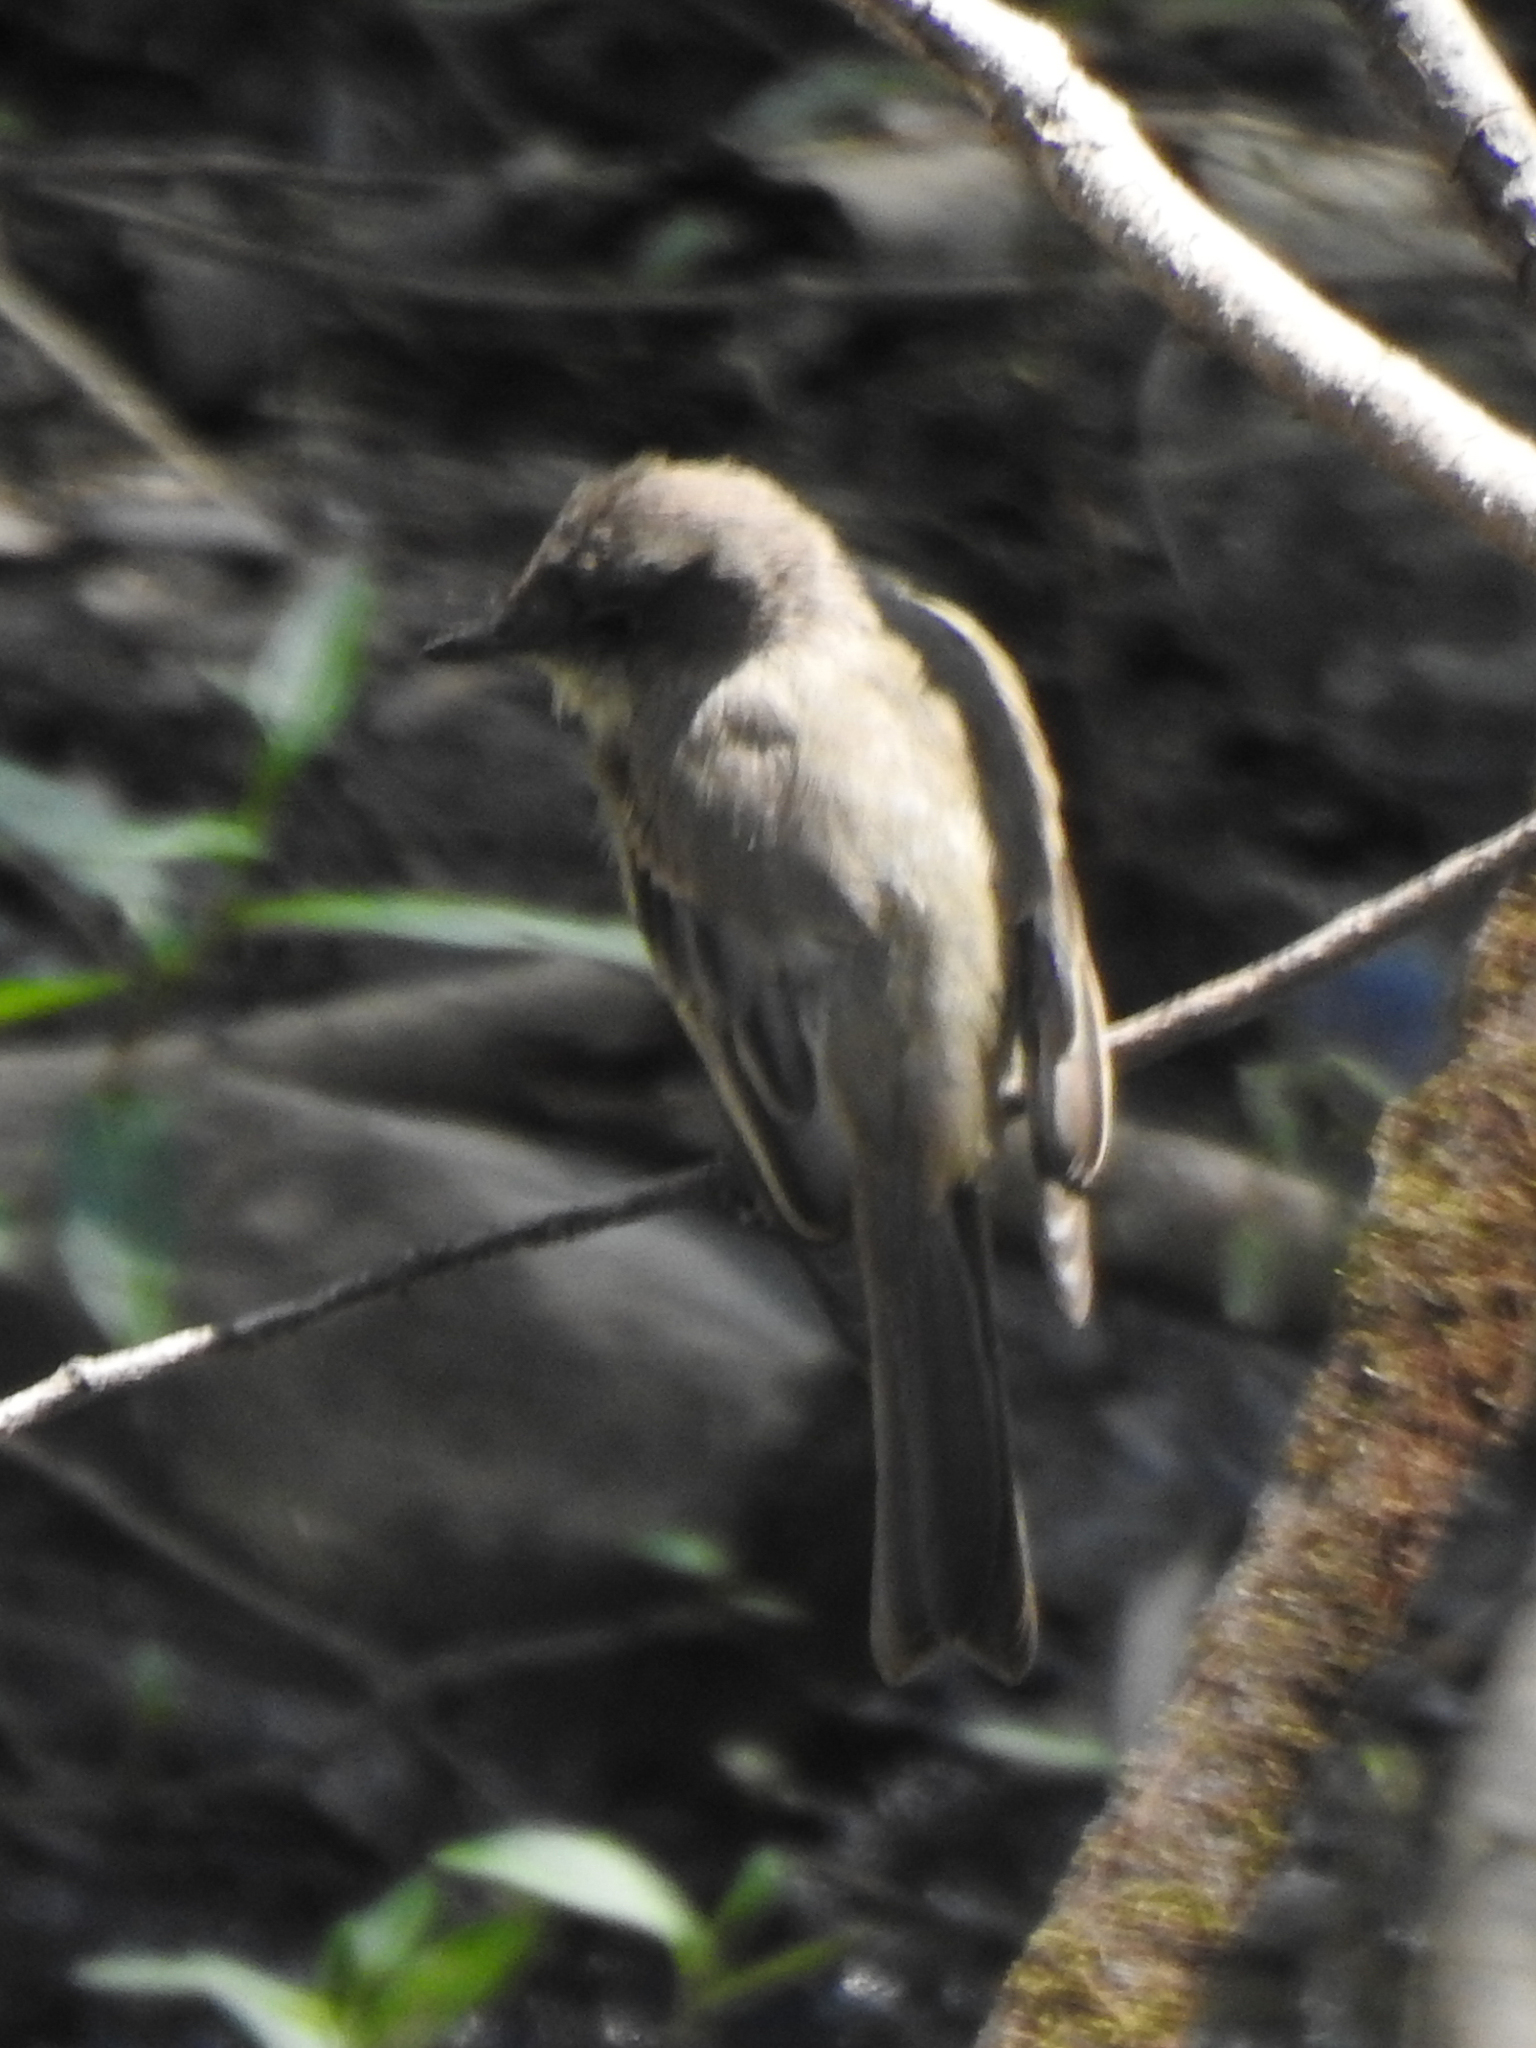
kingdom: Animalia
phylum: Chordata
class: Aves
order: Passeriformes
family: Tyrannidae
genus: Sayornis
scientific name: Sayornis phoebe
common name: Eastern phoebe
